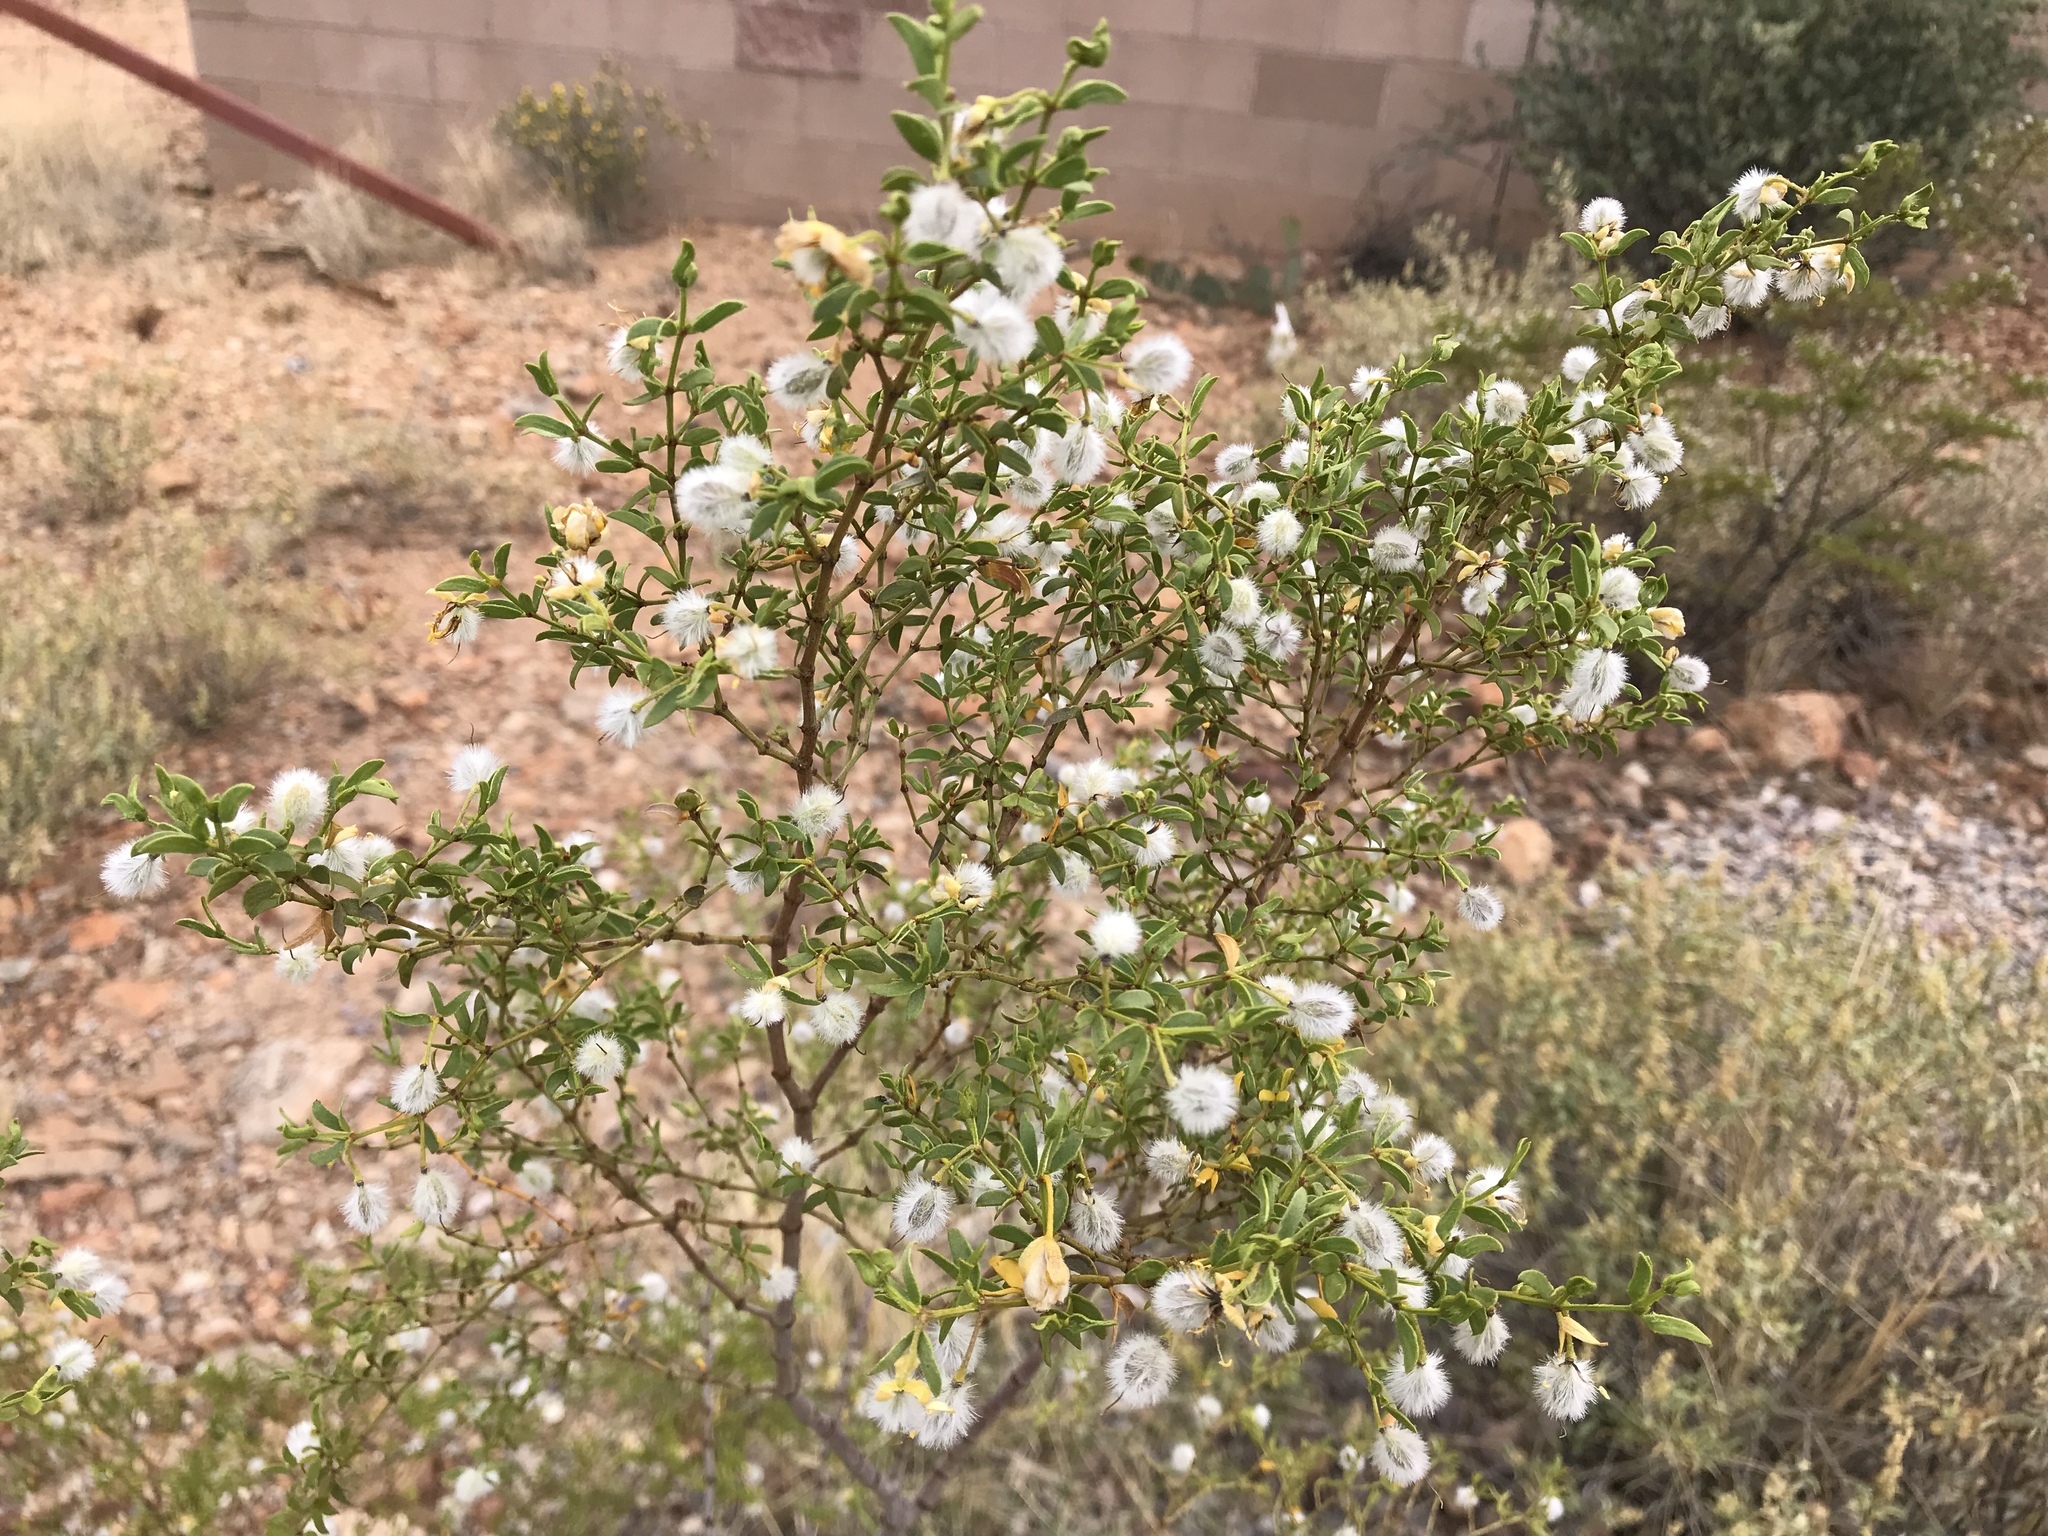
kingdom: Plantae
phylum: Tracheophyta
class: Magnoliopsida
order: Zygophyllales
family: Zygophyllaceae
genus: Larrea
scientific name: Larrea tridentata
